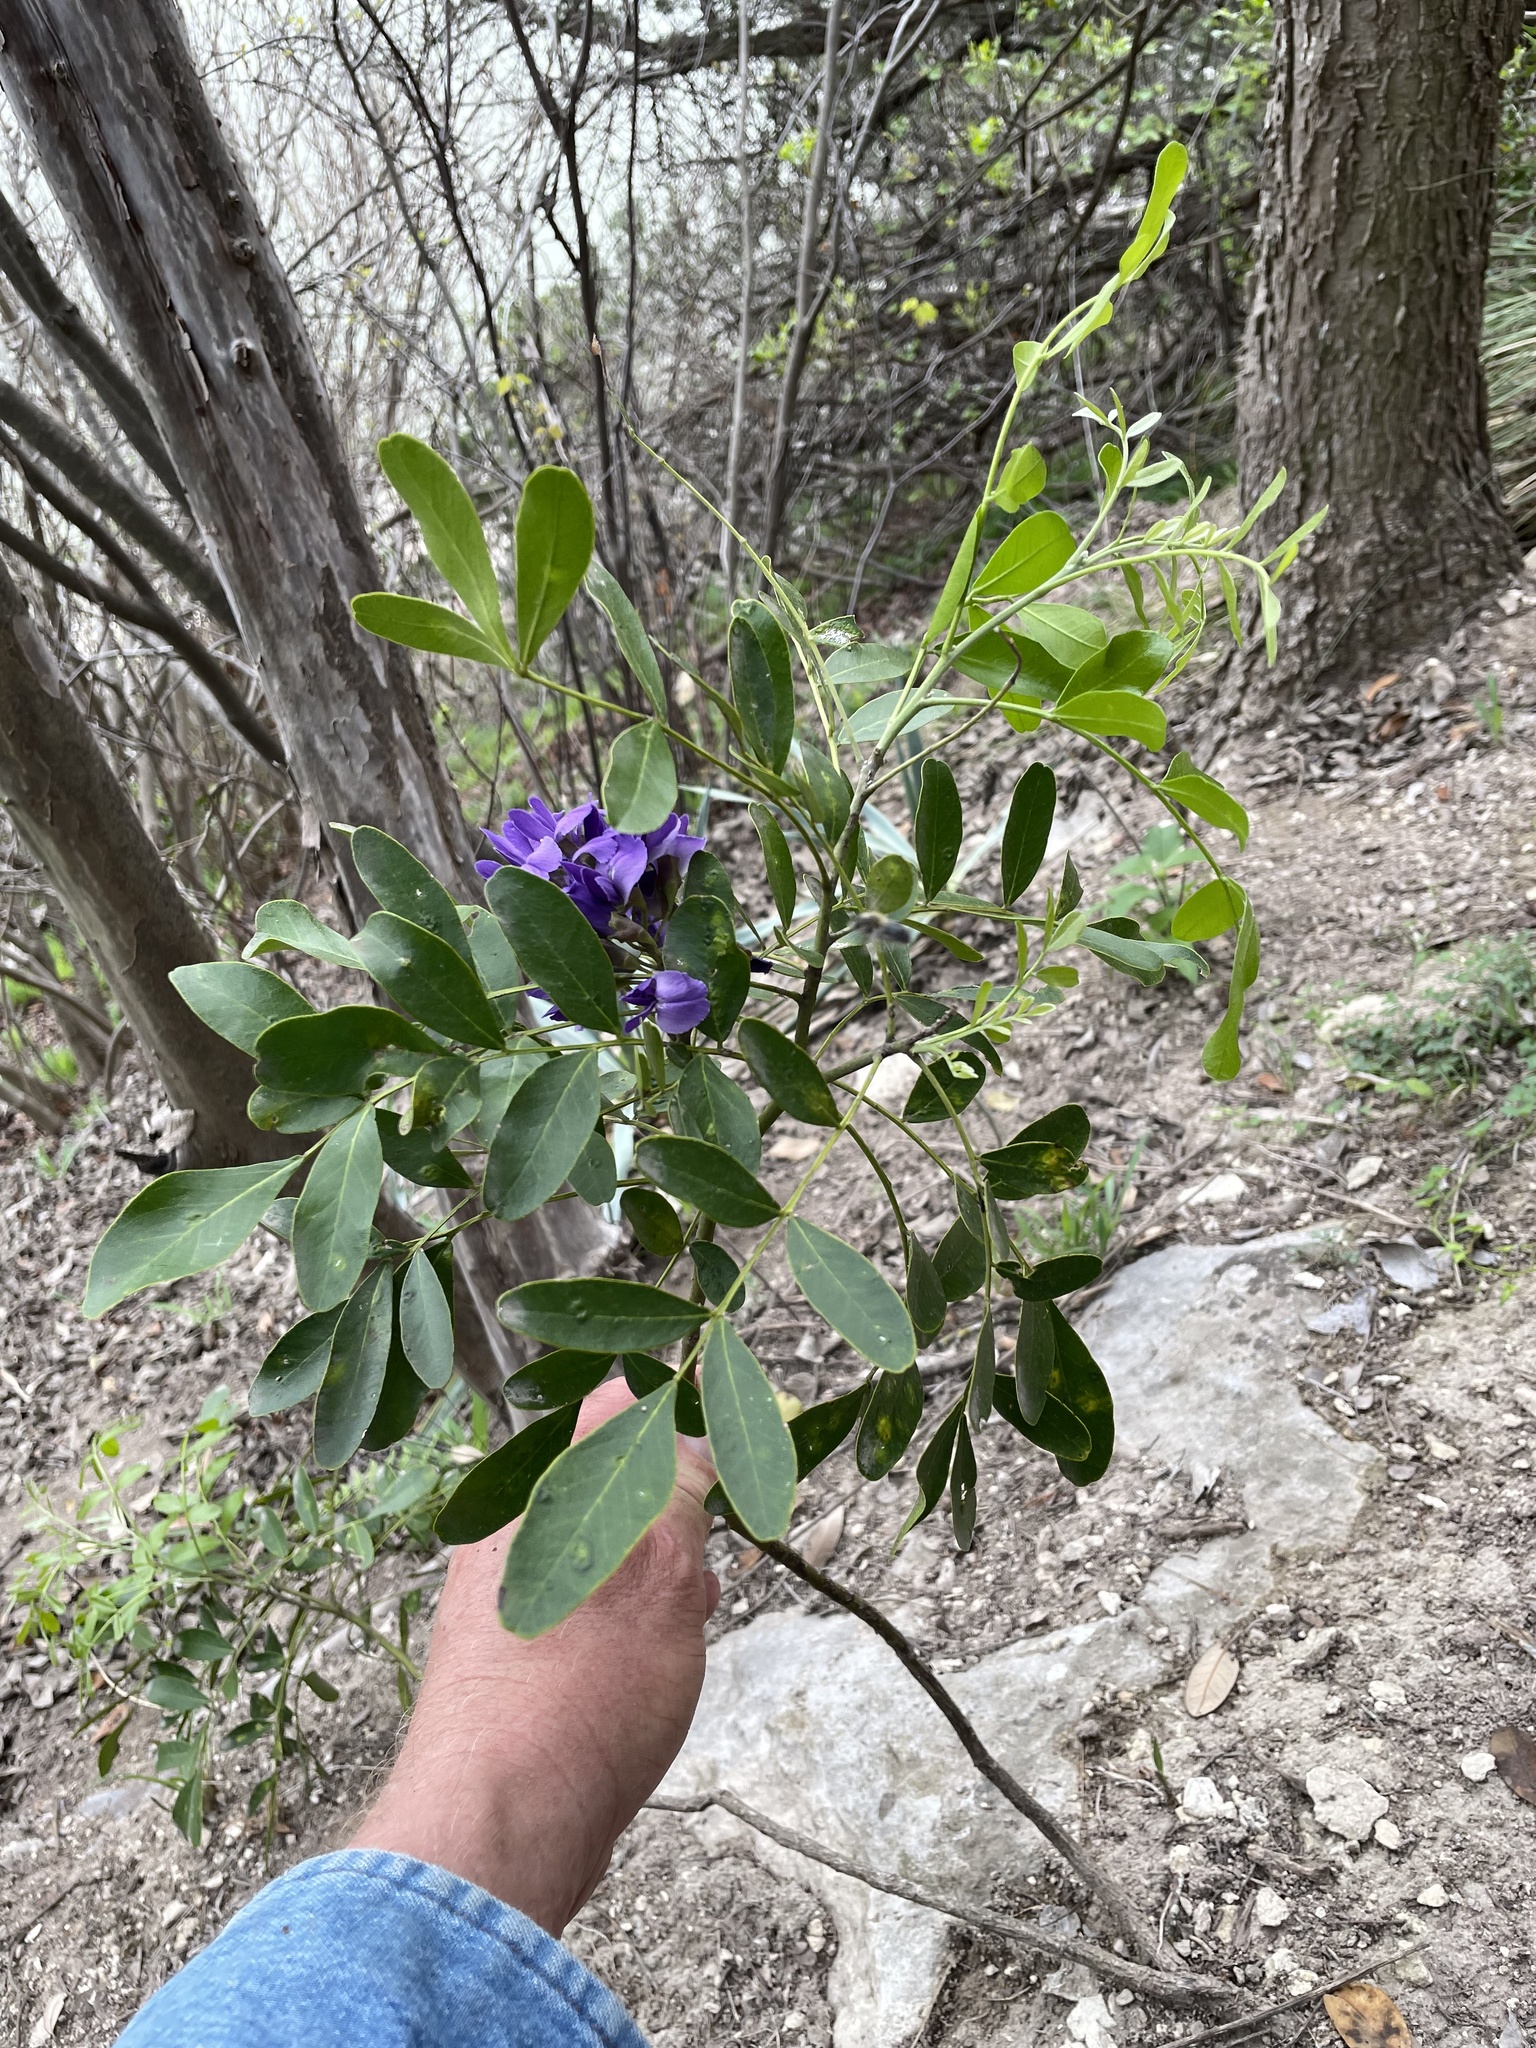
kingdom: Plantae
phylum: Tracheophyta
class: Magnoliopsida
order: Fabales
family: Fabaceae
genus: Dermatophyllum
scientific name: Dermatophyllum secundiflorum
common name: Texas-mountain-laurel
